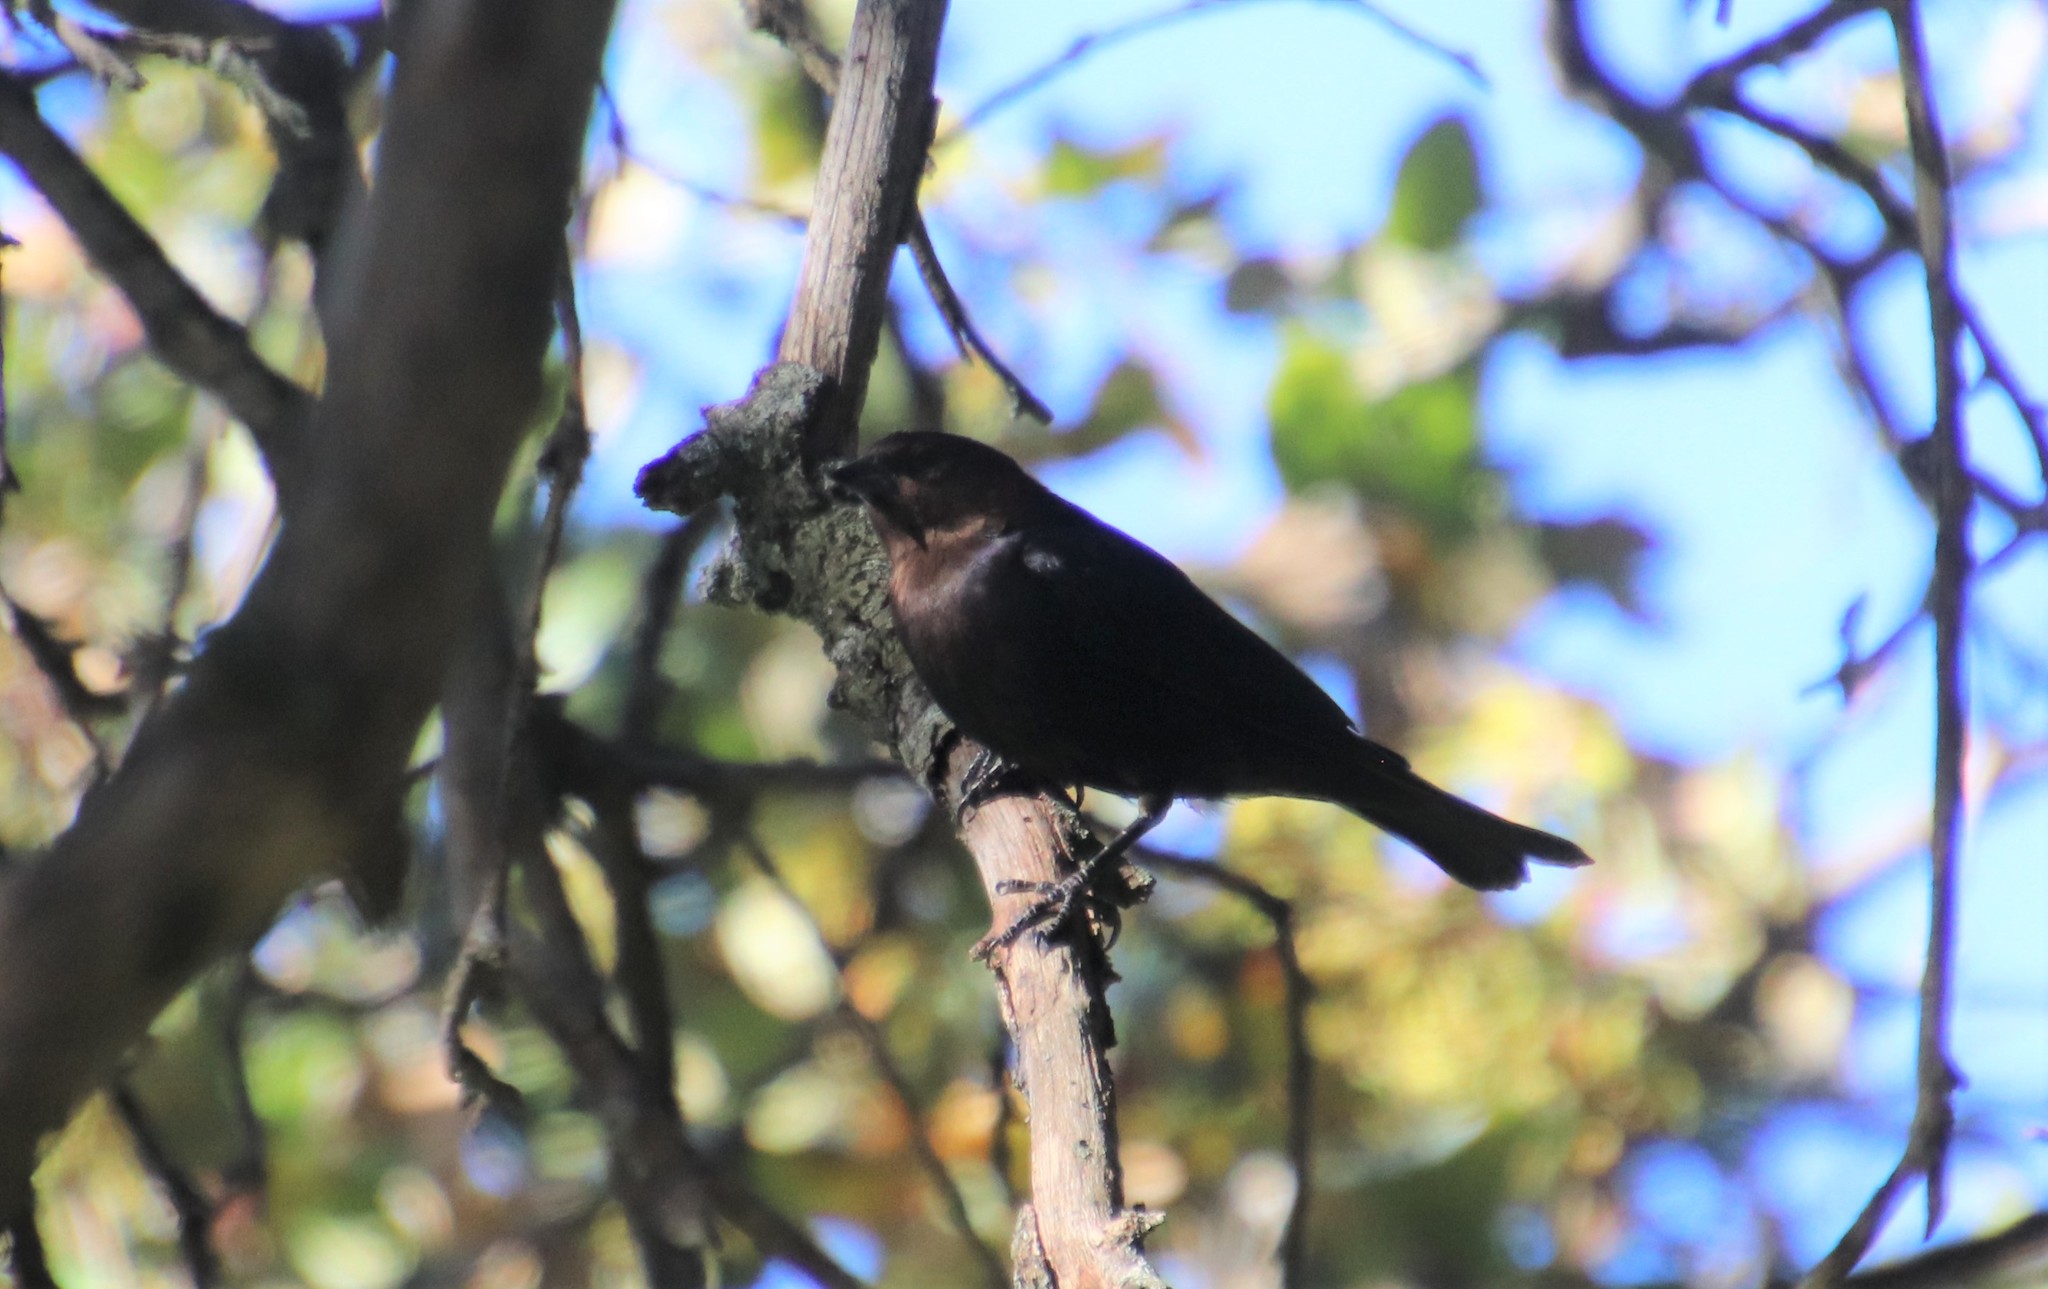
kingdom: Animalia
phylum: Chordata
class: Aves
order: Passeriformes
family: Icteridae
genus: Molothrus
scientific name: Molothrus ater
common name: Brown-headed cowbird
